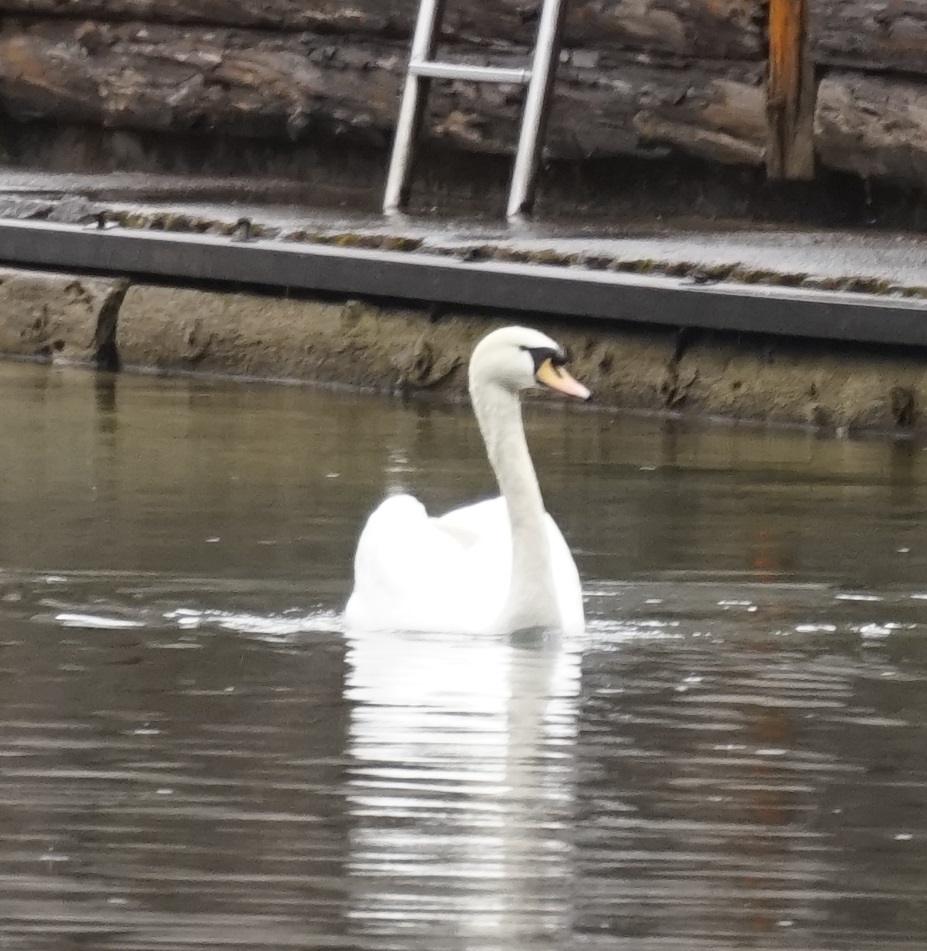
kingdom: Animalia
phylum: Chordata
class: Aves
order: Anseriformes
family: Anatidae
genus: Cygnus
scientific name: Cygnus olor
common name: Mute swan
